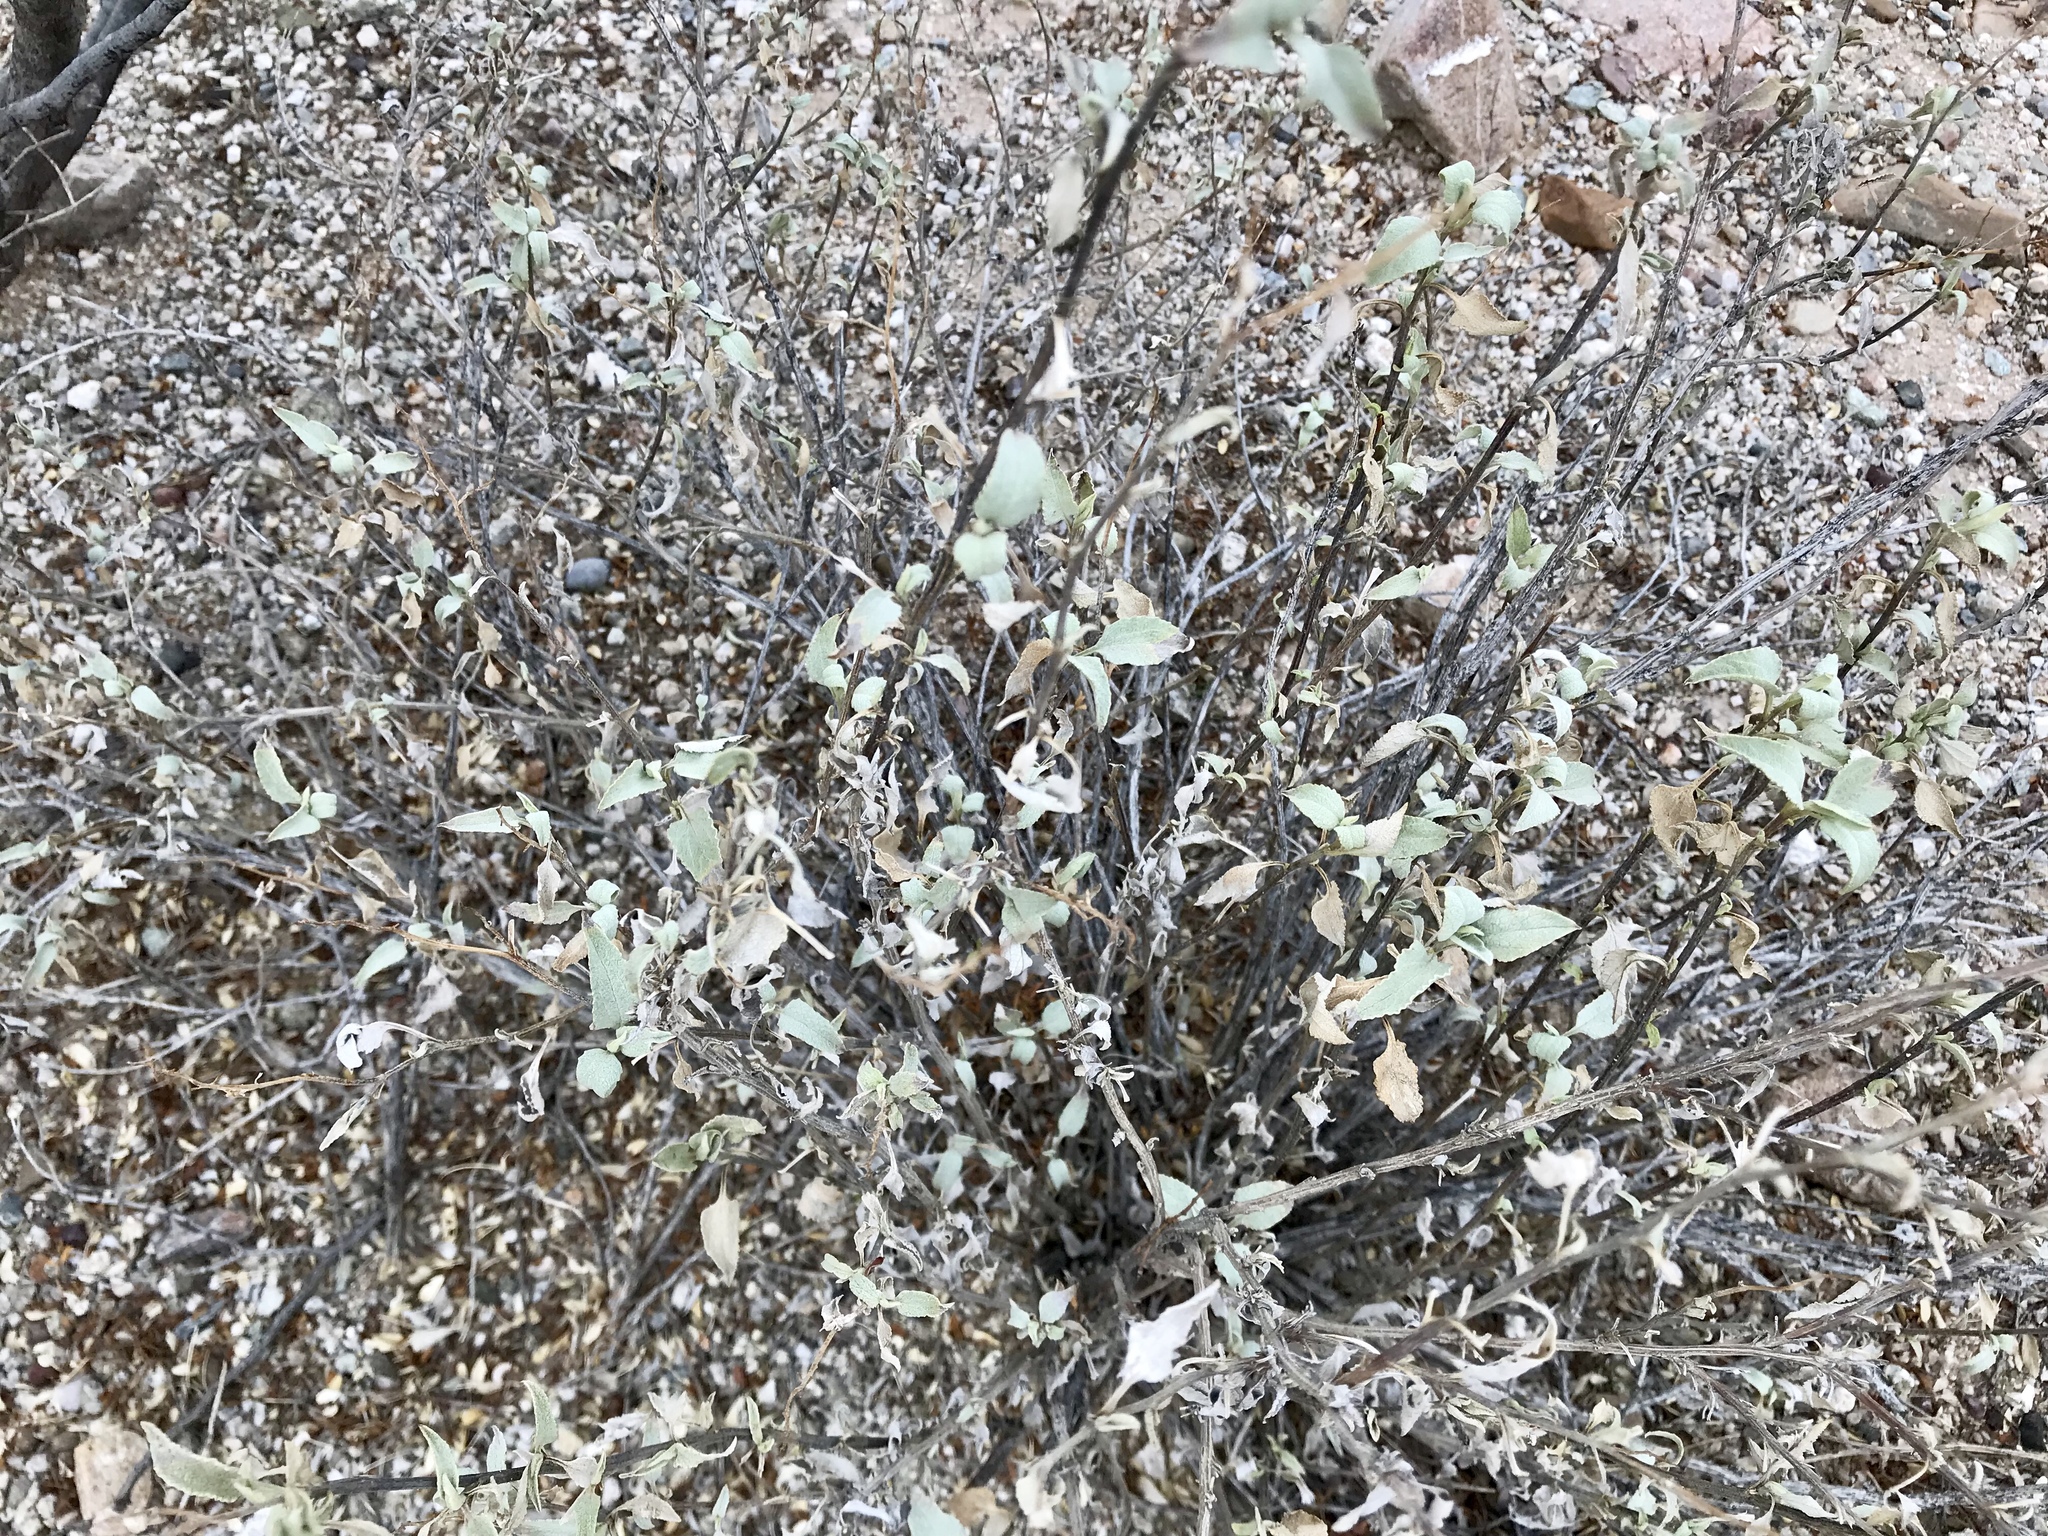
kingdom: Plantae
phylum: Tracheophyta
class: Magnoliopsida
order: Asterales
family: Asteraceae
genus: Ambrosia
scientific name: Ambrosia deltoidea
